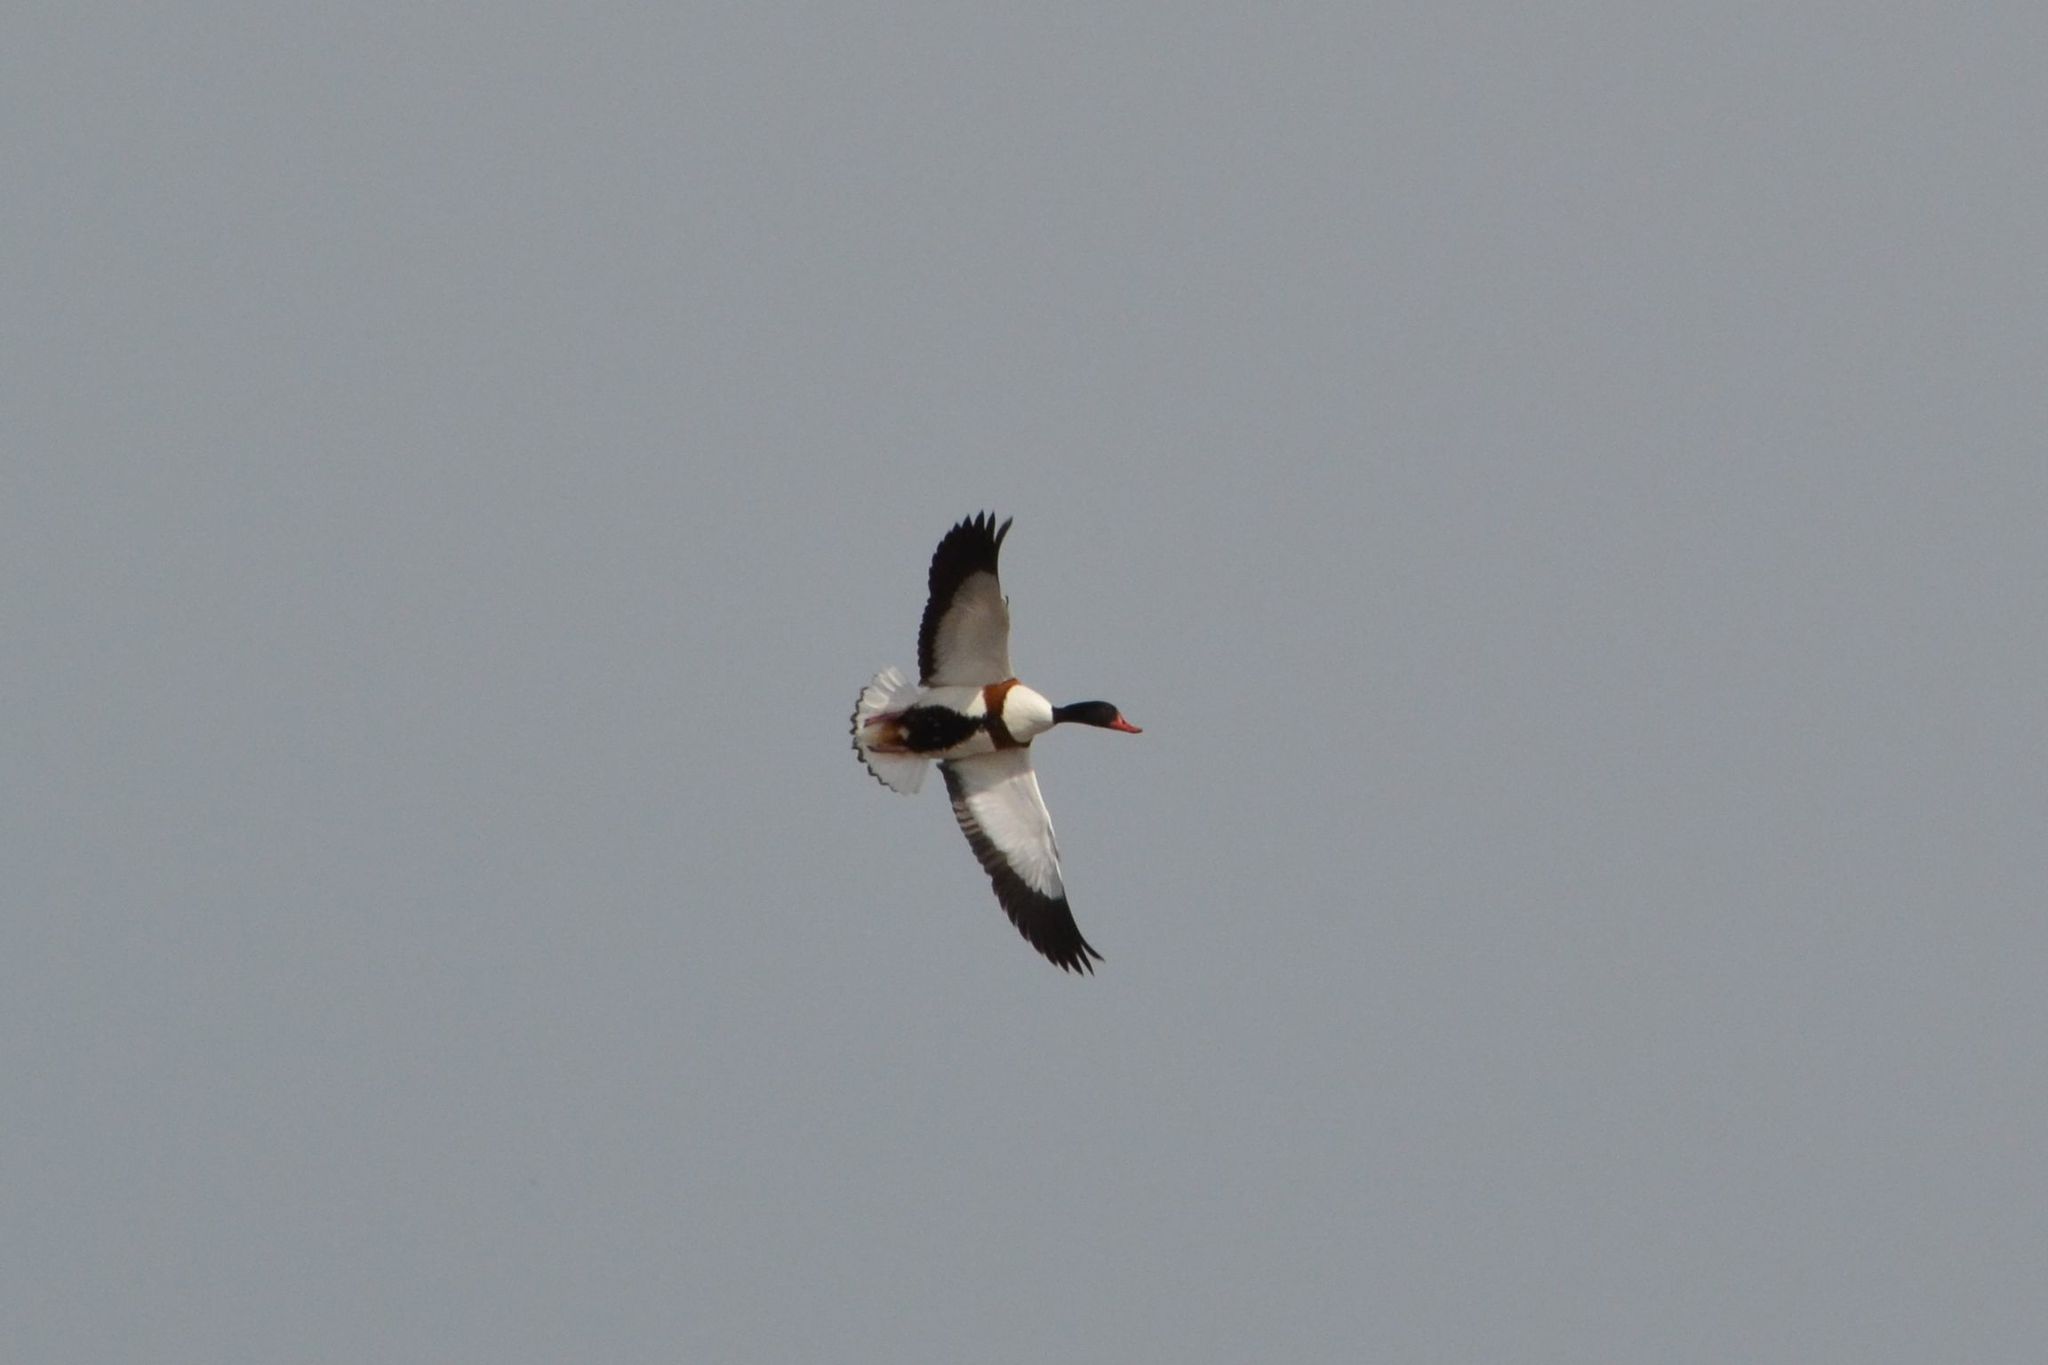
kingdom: Animalia
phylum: Chordata
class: Aves
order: Anseriformes
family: Anatidae
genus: Tadorna
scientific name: Tadorna tadorna
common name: Common shelduck
